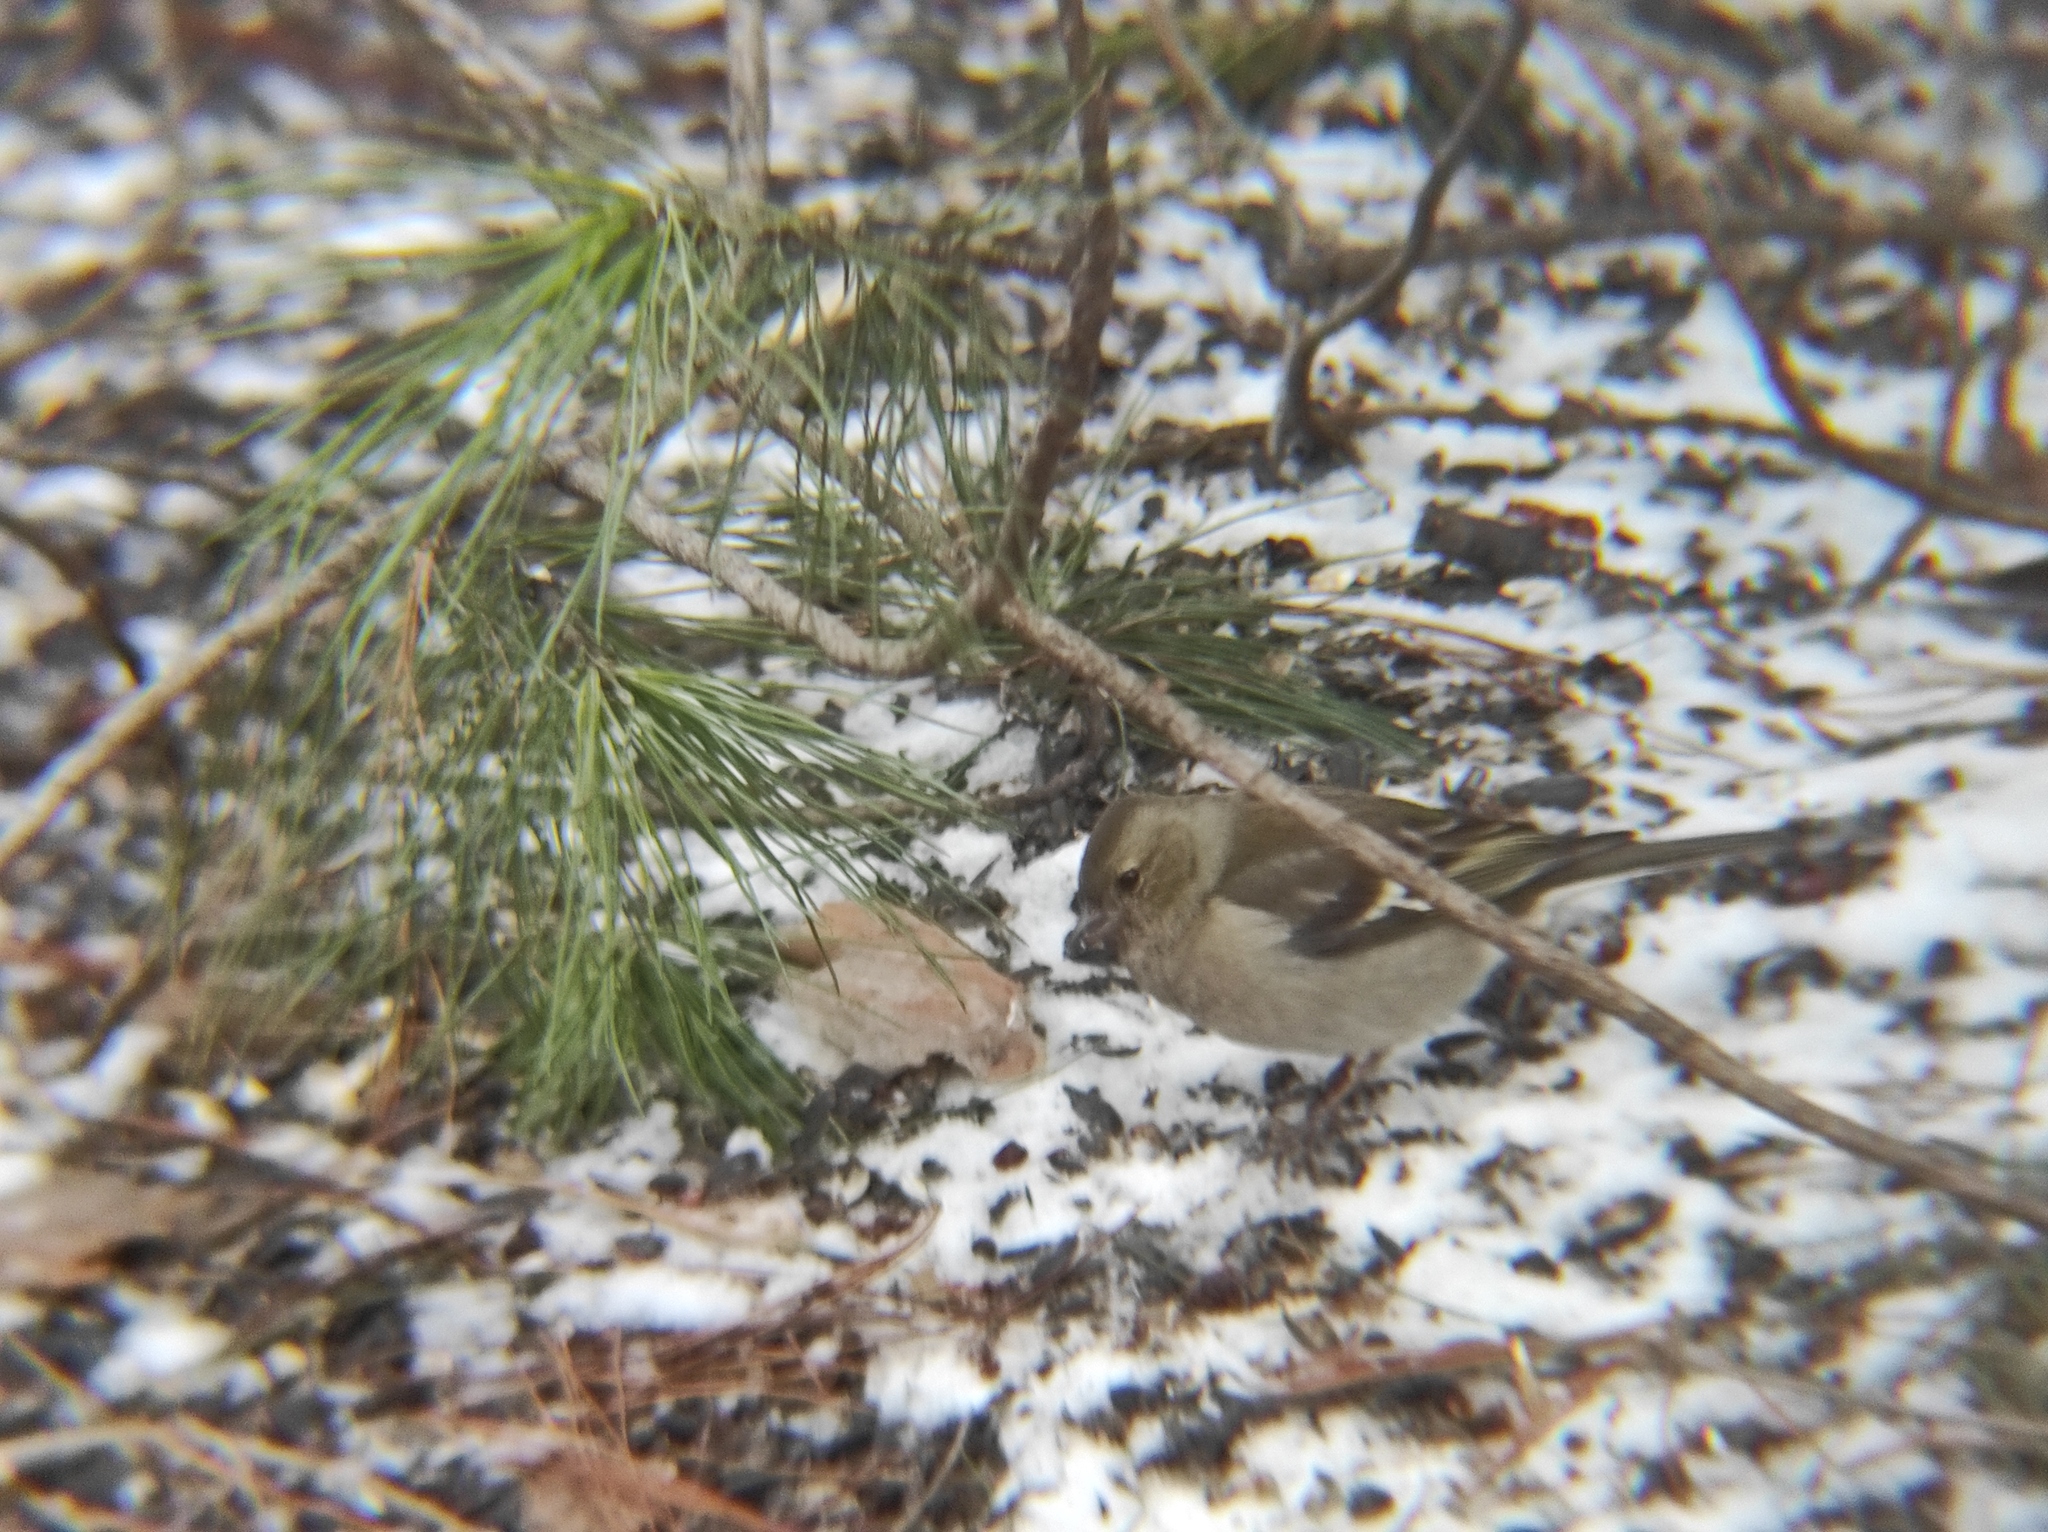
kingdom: Animalia
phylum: Chordata
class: Aves
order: Passeriformes
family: Fringillidae
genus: Fringilla
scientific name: Fringilla coelebs
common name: Common chaffinch
